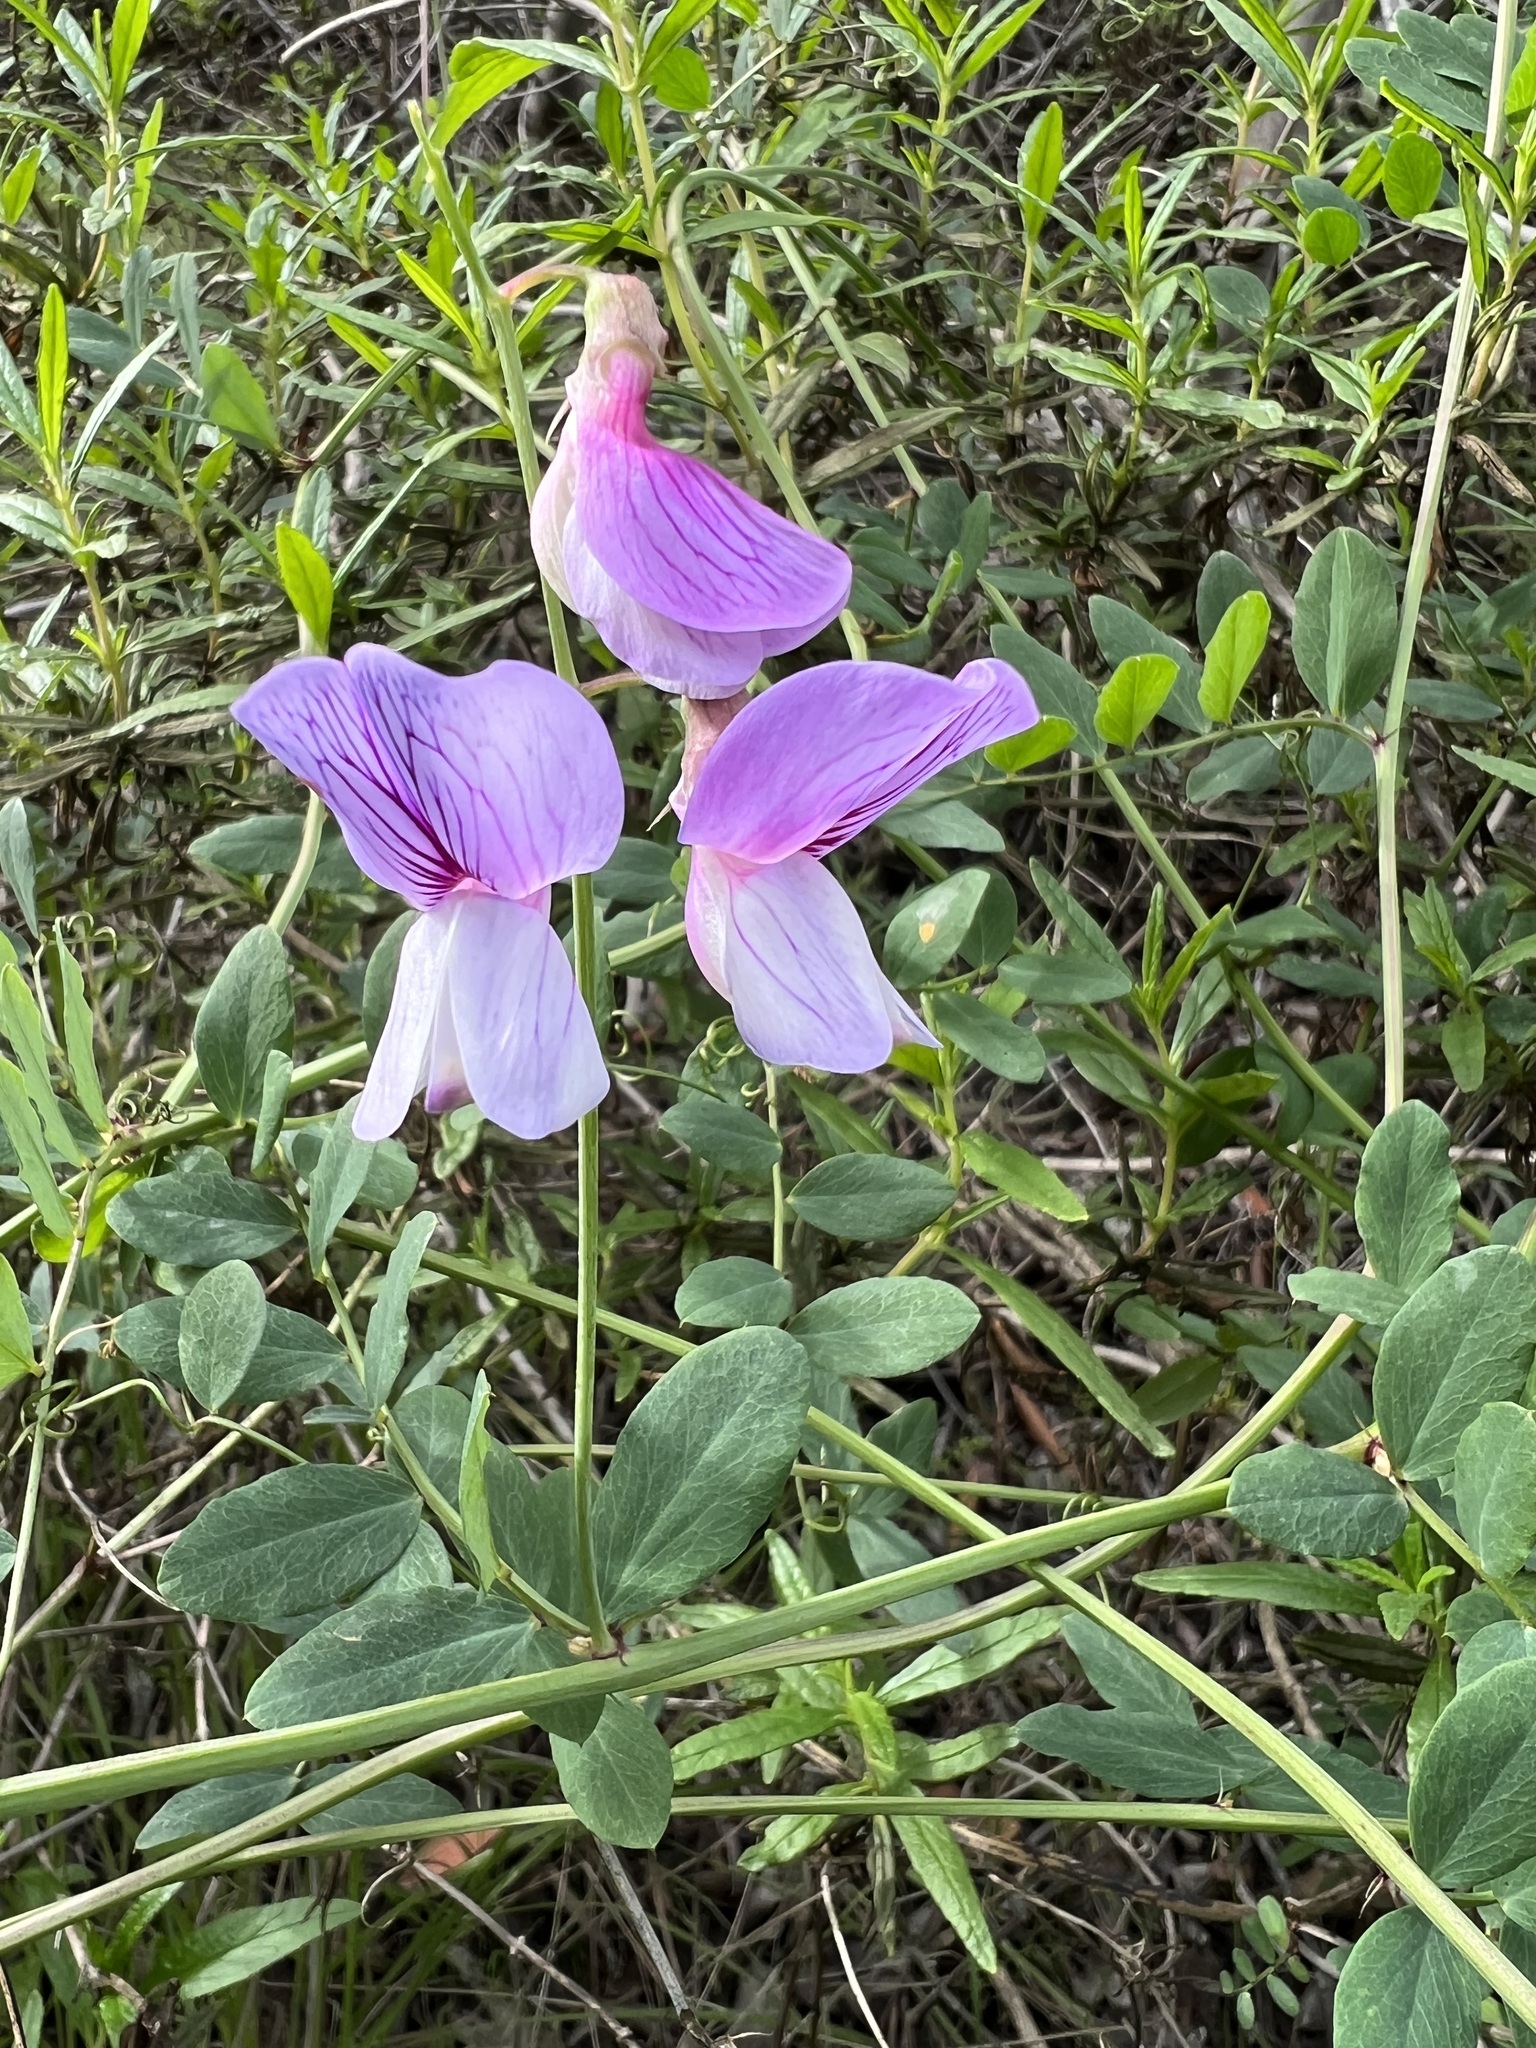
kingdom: Plantae
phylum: Tracheophyta
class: Magnoliopsida
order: Fabales
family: Fabaceae
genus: Lathyrus
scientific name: Lathyrus vestitus
